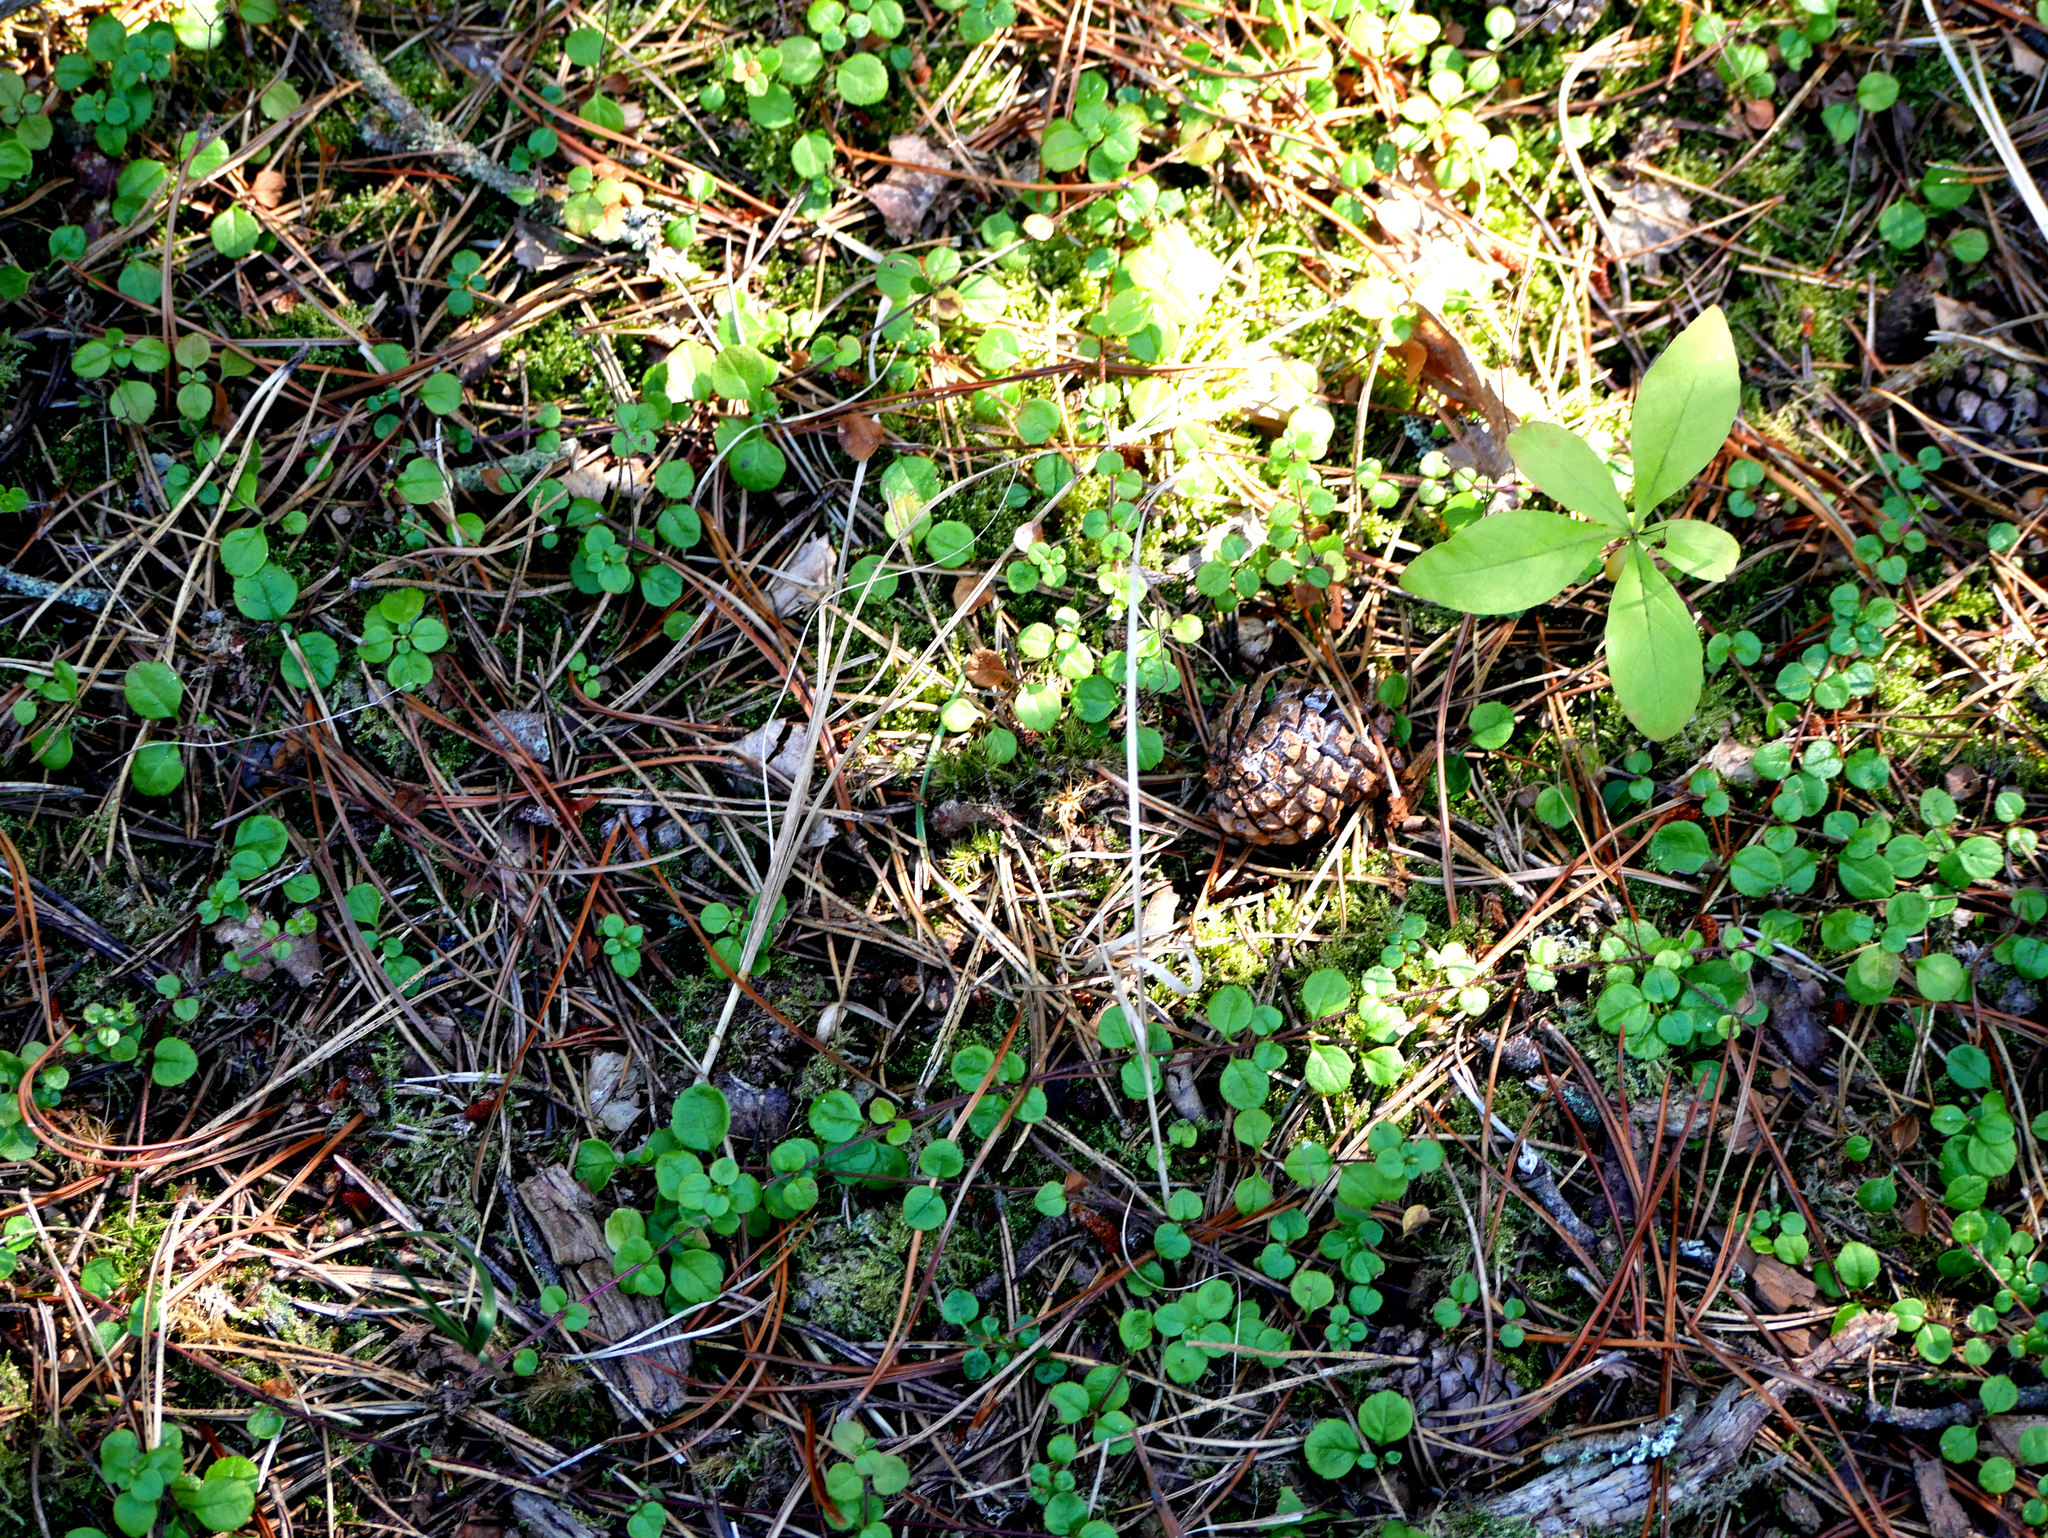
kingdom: Plantae
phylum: Tracheophyta
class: Magnoliopsida
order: Dipsacales
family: Caprifoliaceae
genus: Linnaea
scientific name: Linnaea borealis
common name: Twinflower
